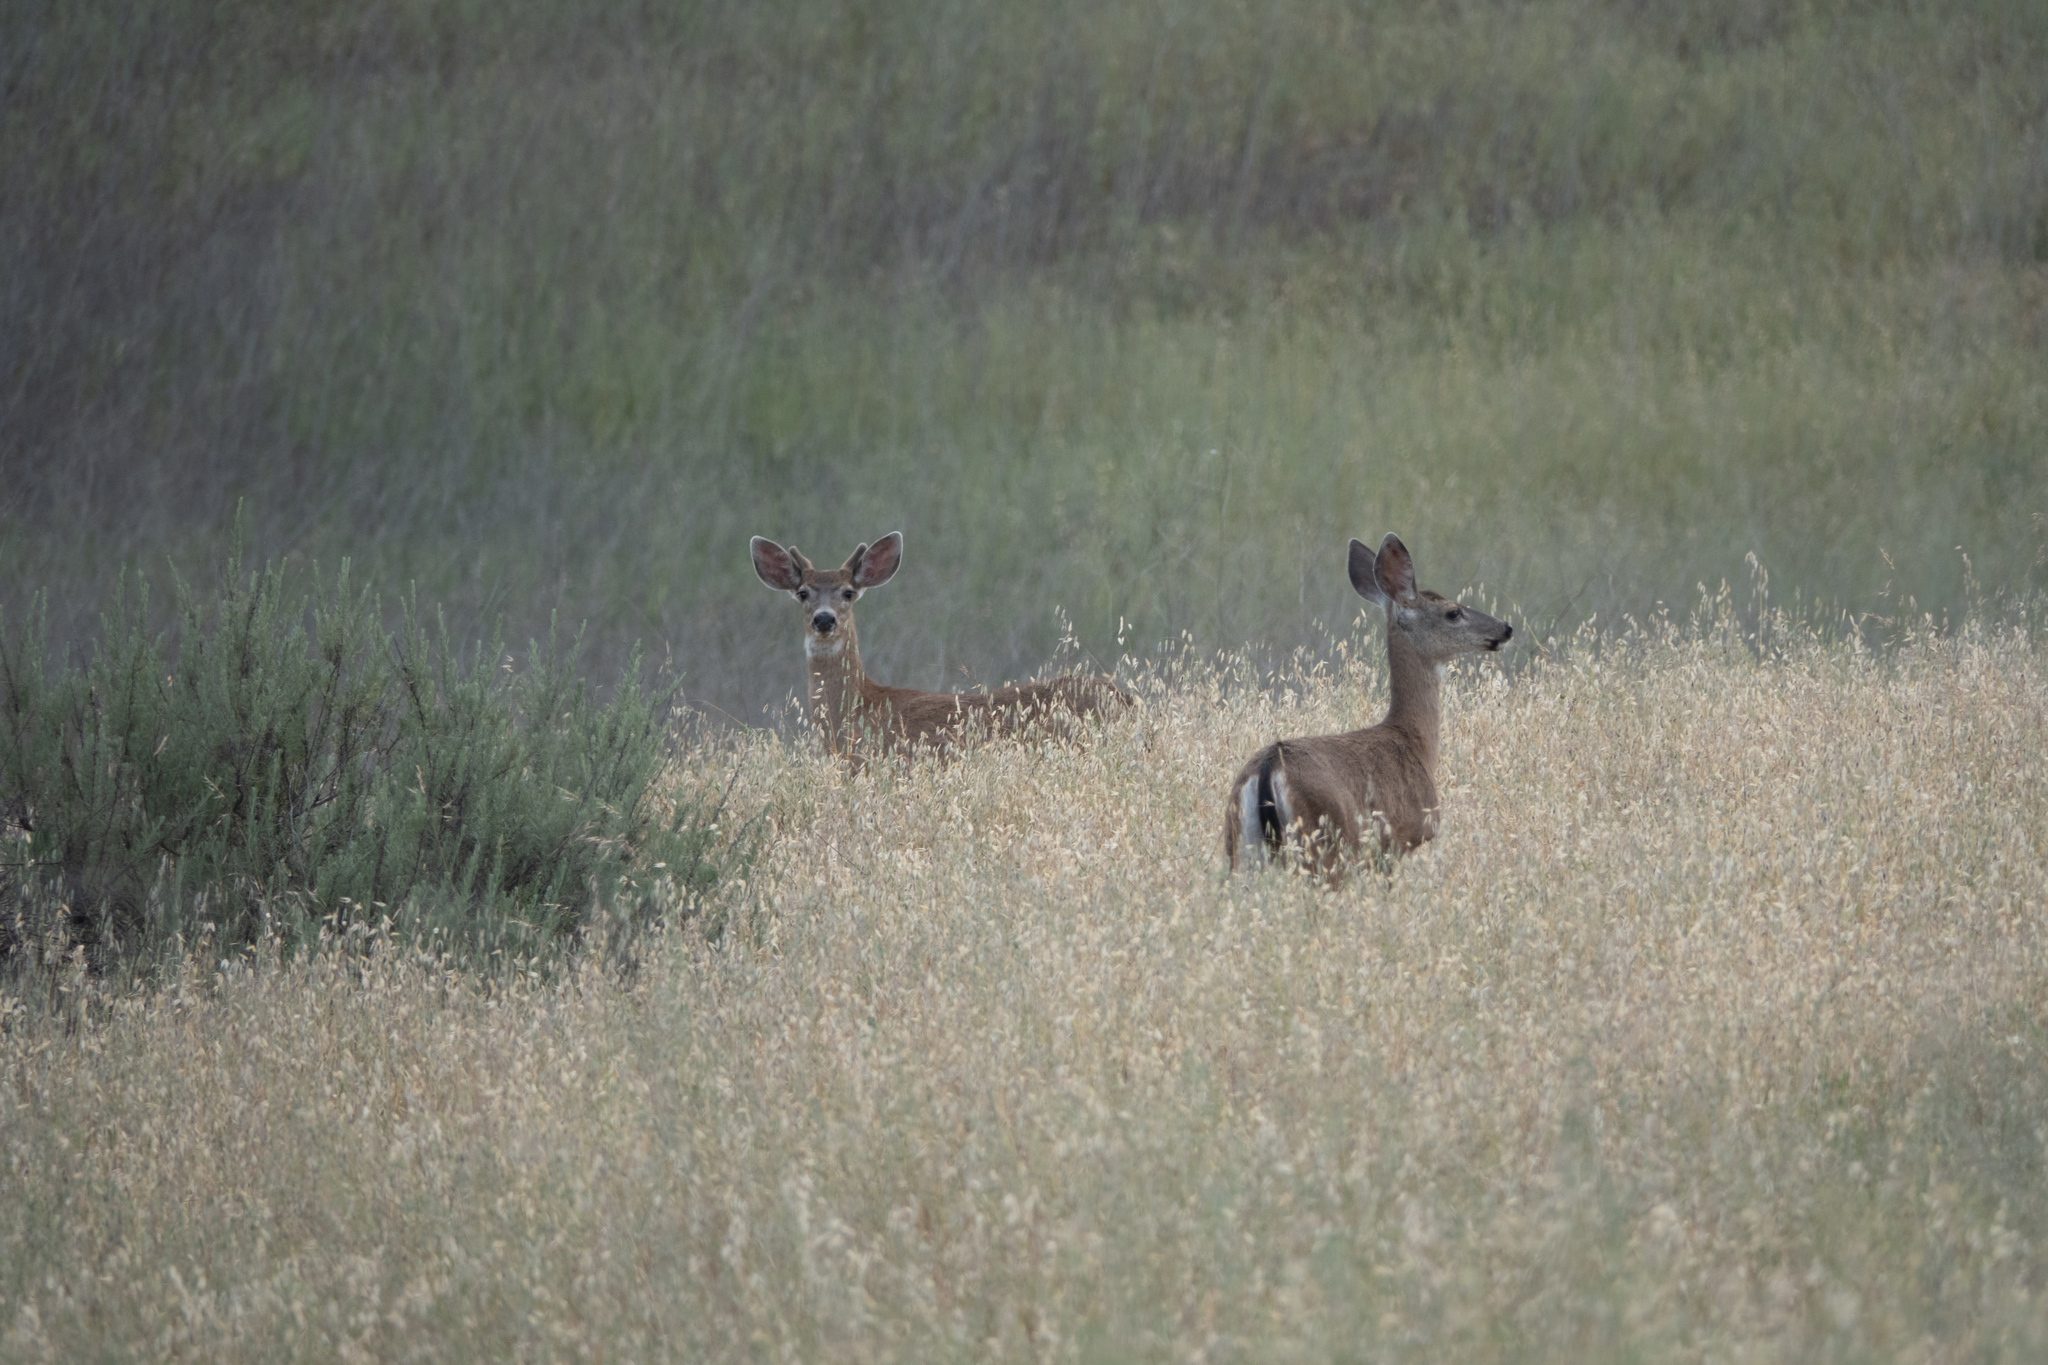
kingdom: Animalia
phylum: Chordata
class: Mammalia
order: Artiodactyla
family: Cervidae
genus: Odocoileus
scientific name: Odocoileus hemionus
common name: Mule deer
